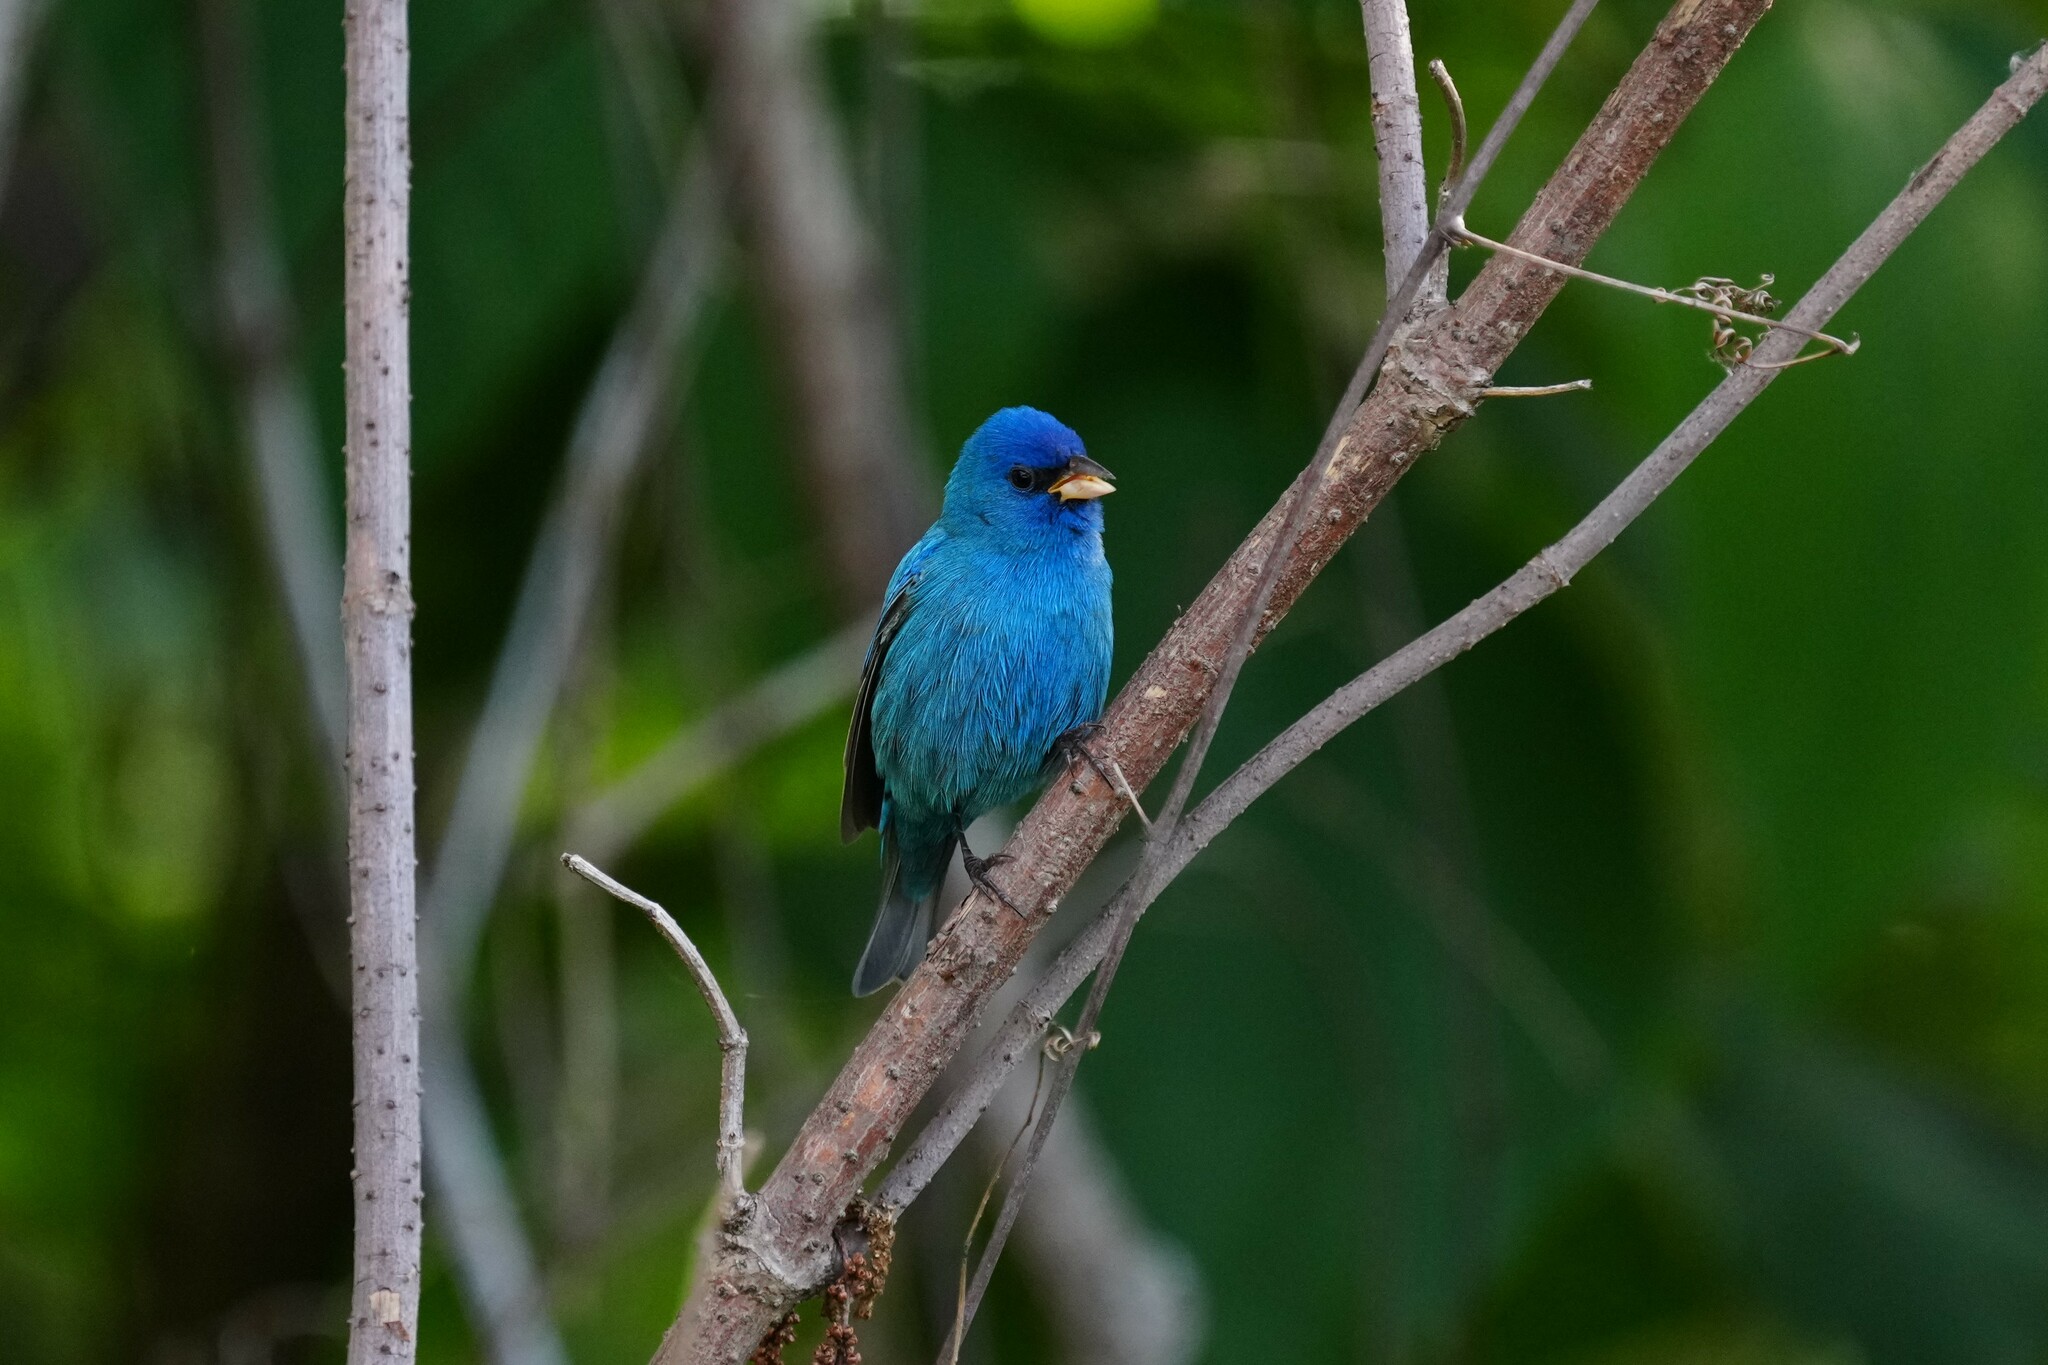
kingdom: Animalia
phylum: Chordata
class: Aves
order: Passeriformes
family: Cardinalidae
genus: Passerina
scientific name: Passerina cyanea
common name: Indigo bunting
